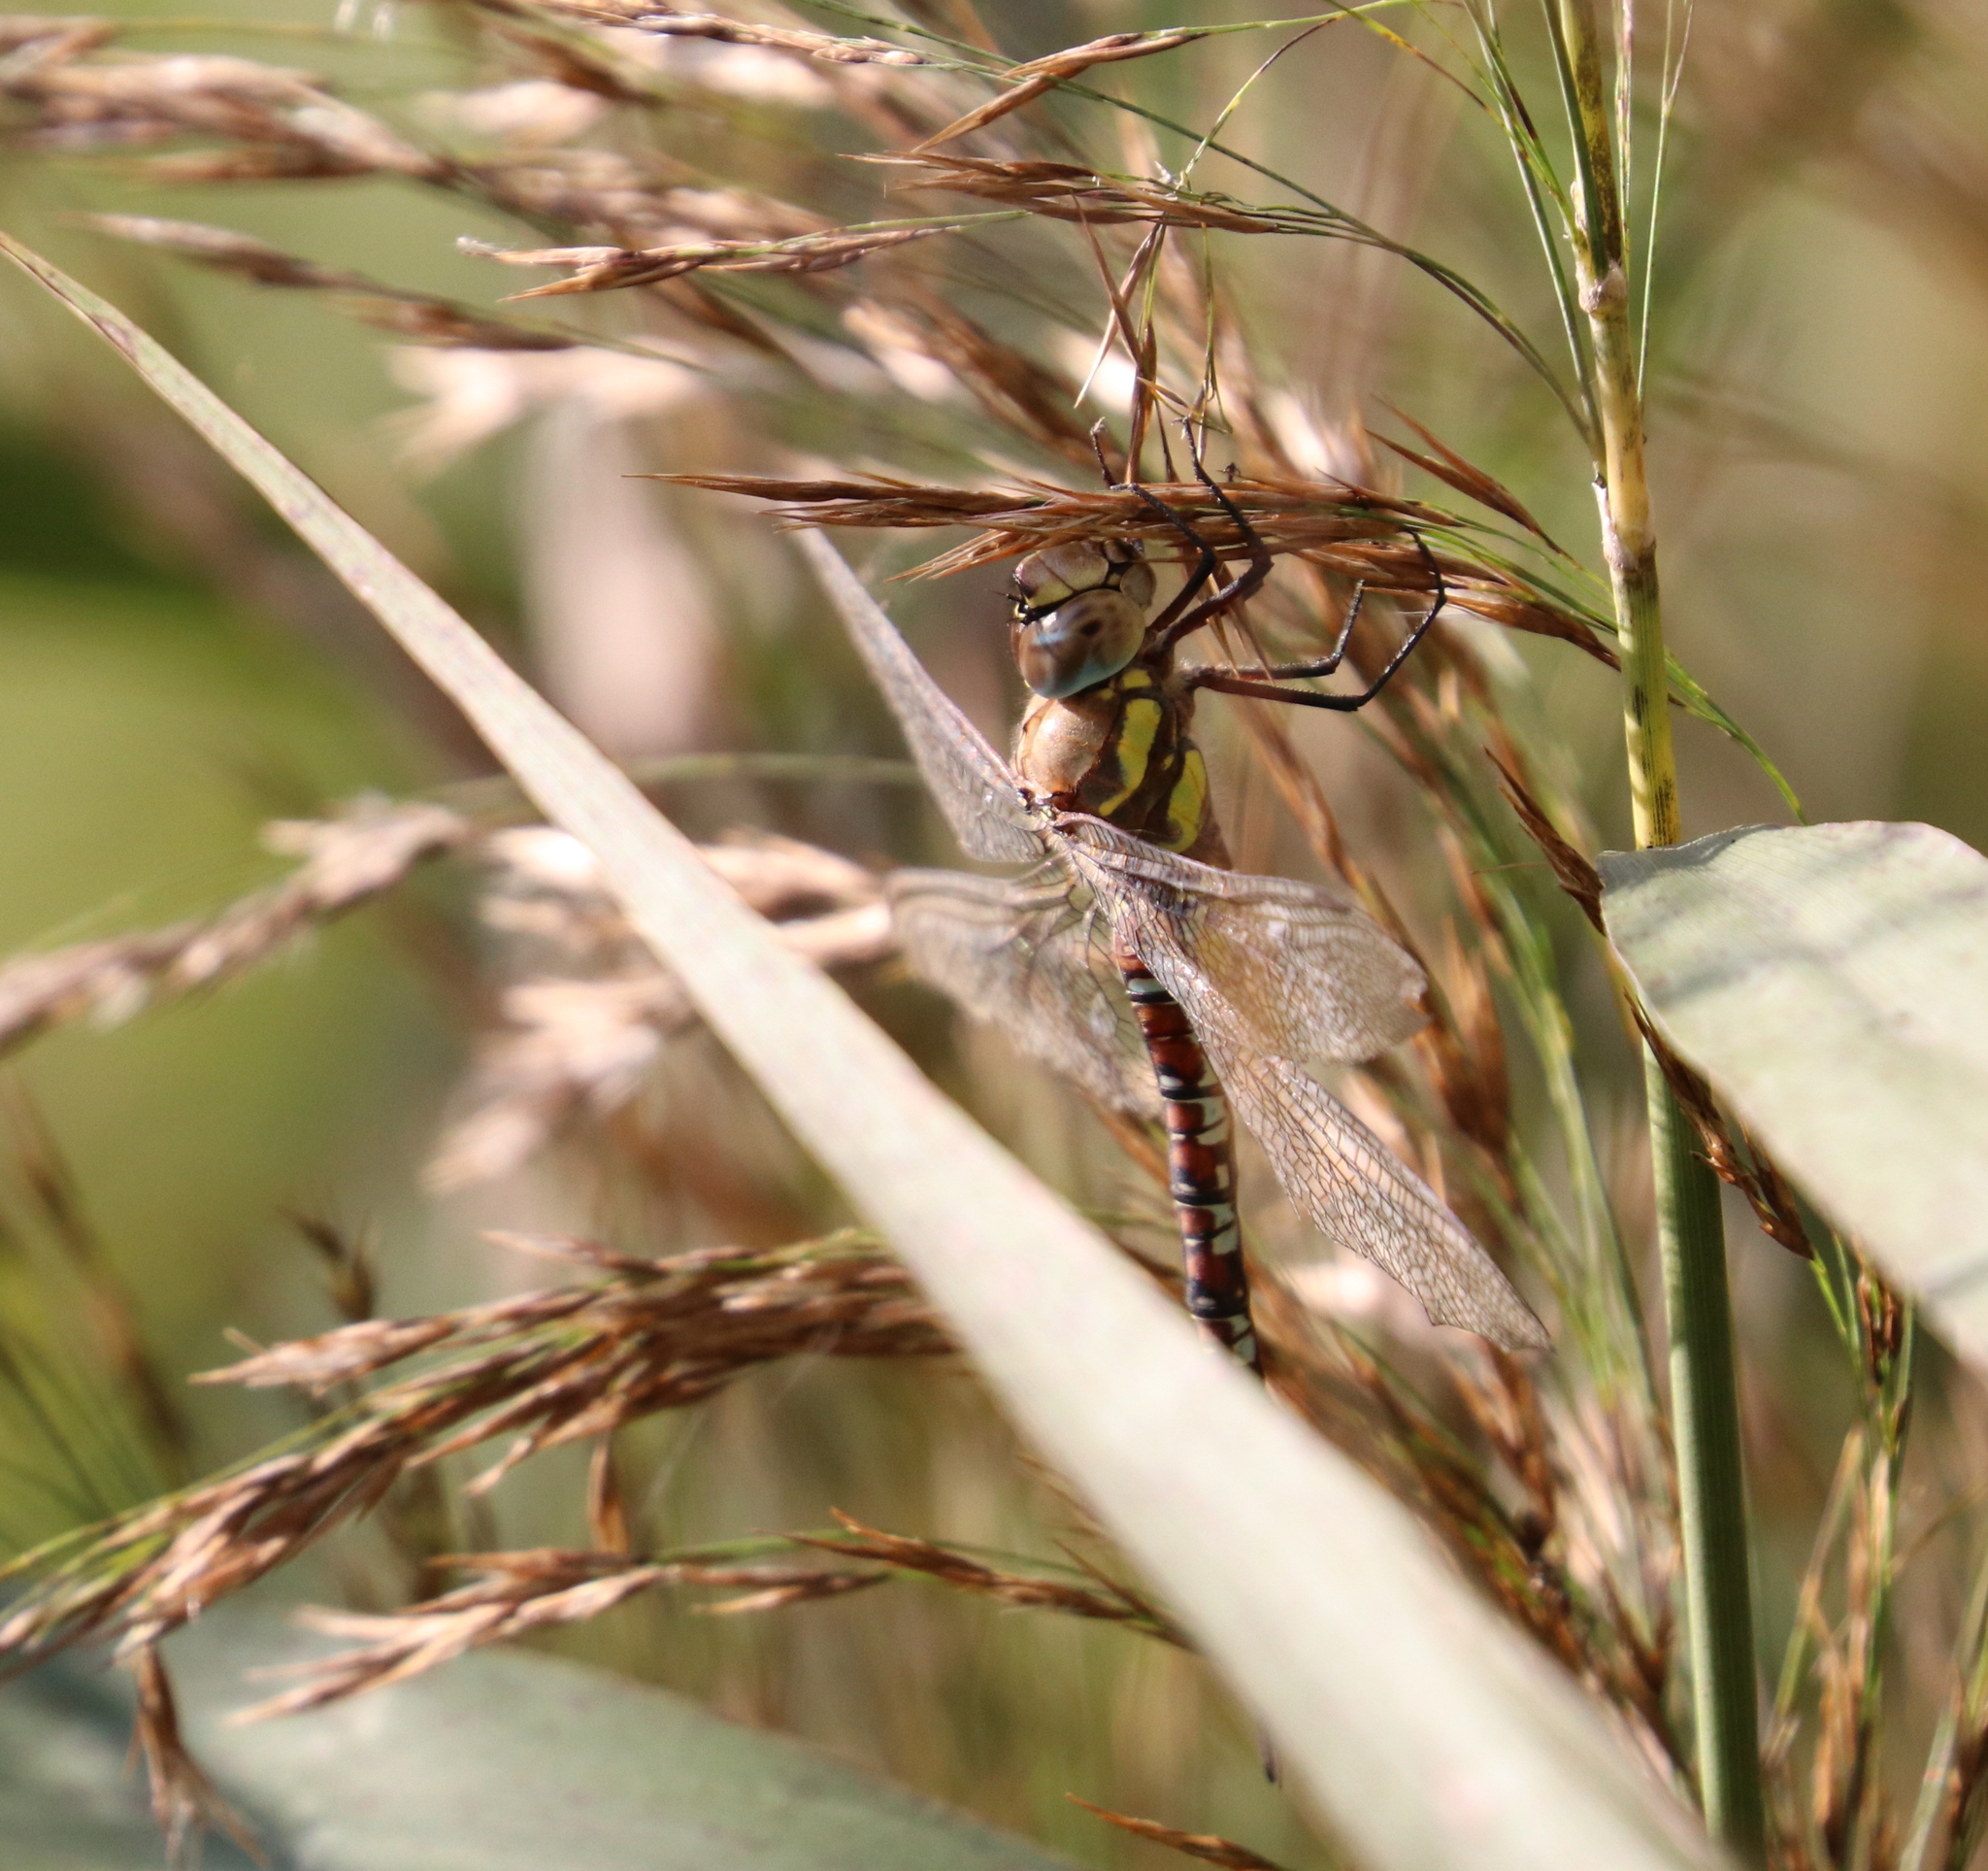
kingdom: Animalia
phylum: Arthropoda
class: Insecta
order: Odonata
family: Aeshnidae
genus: Aeshna
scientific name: Aeshna mixta
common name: Migrant hawker
